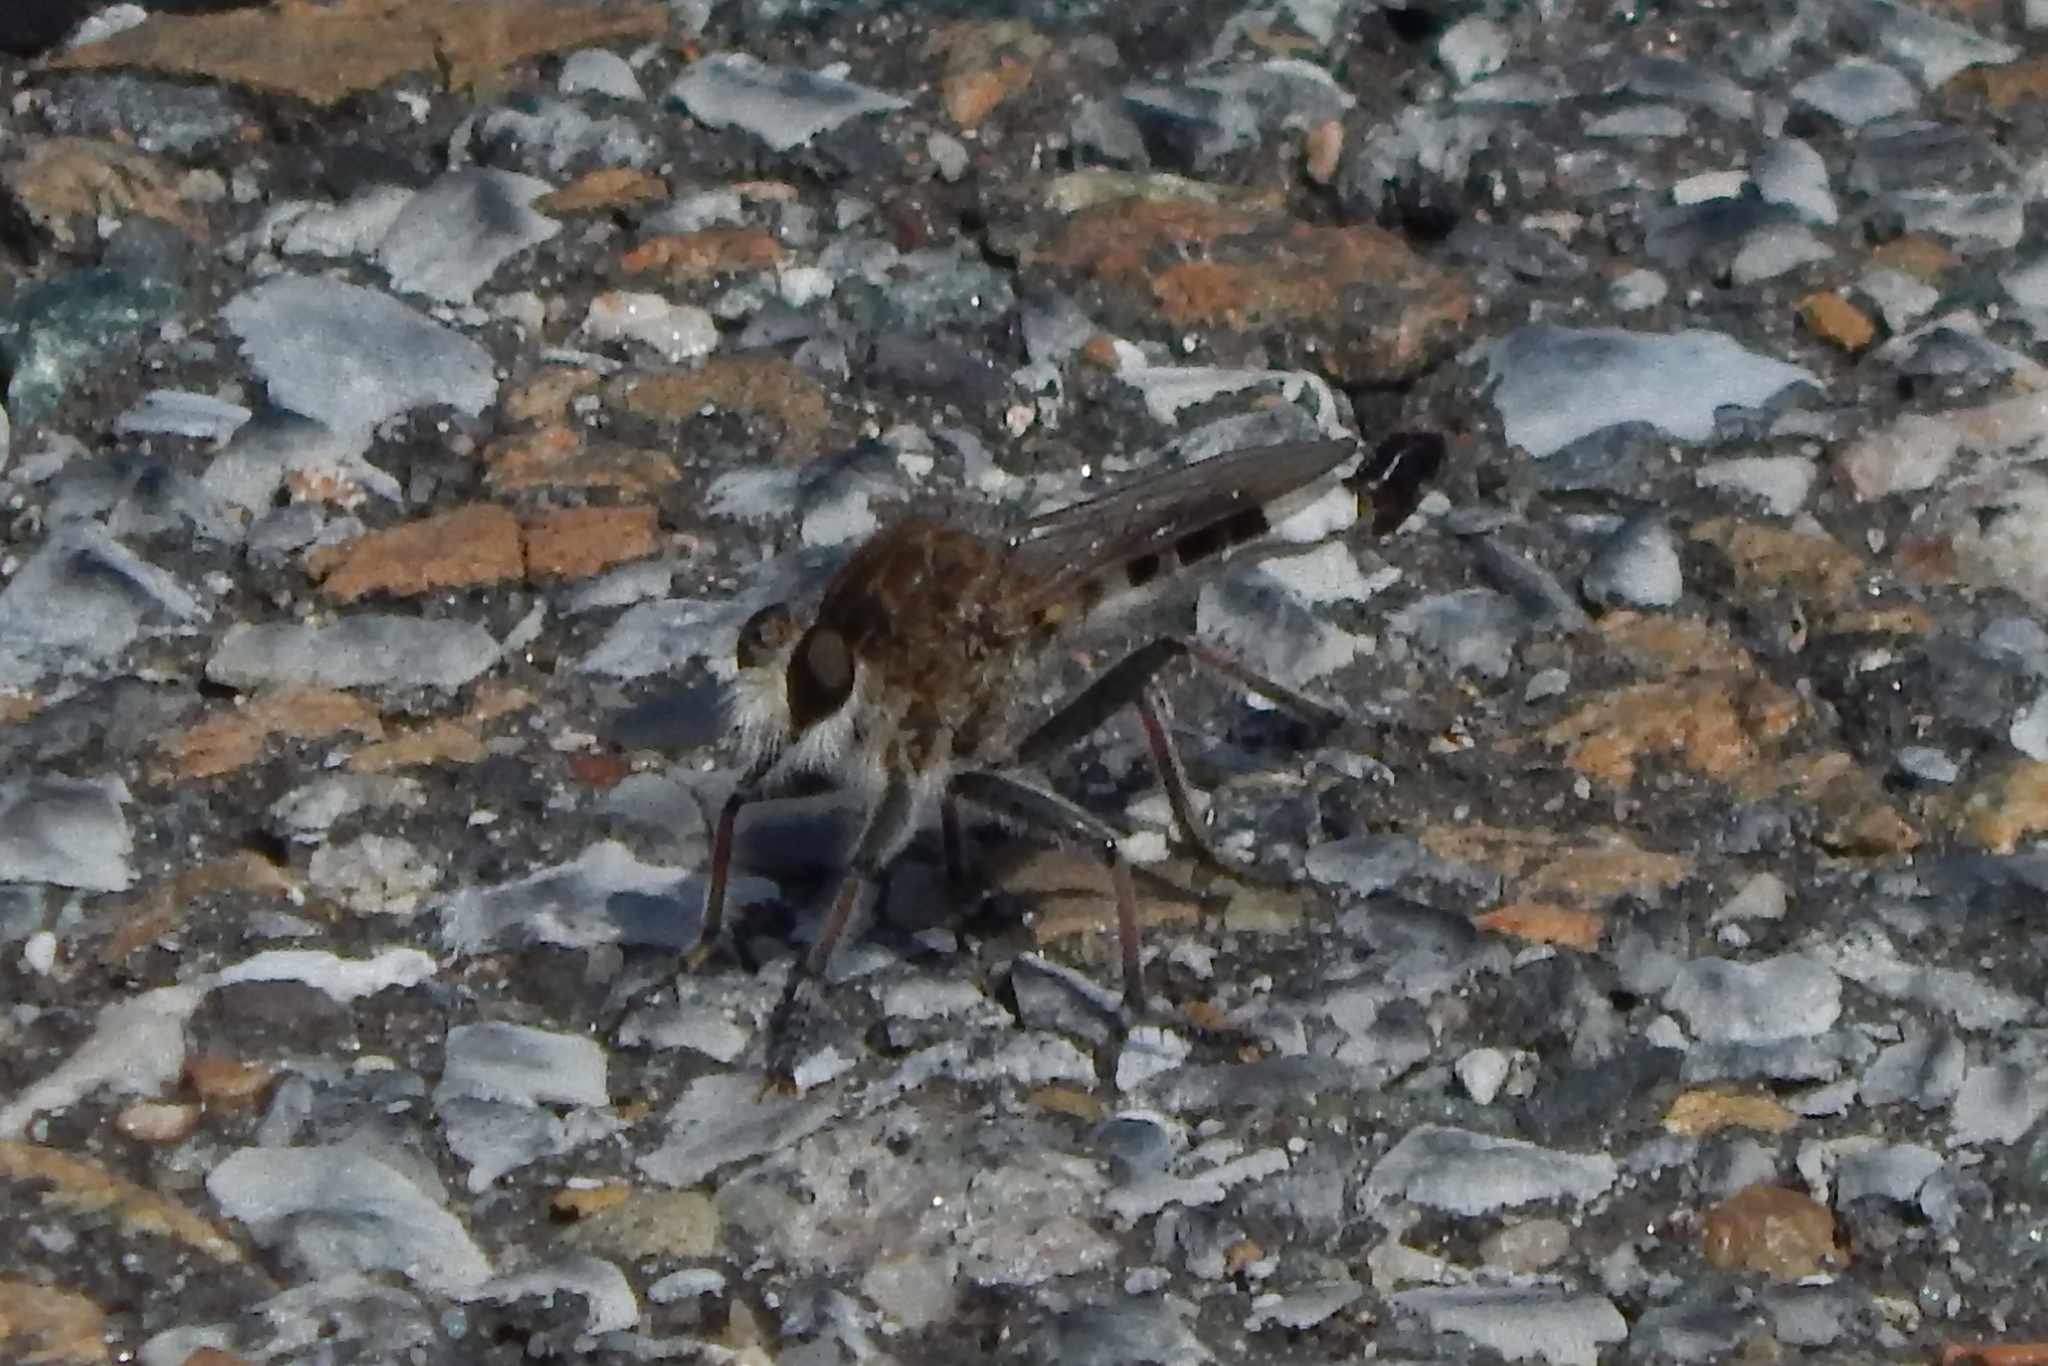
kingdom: Animalia
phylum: Arthropoda
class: Insecta
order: Diptera
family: Asilidae
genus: Efferia
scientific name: Efferia albibarbis
